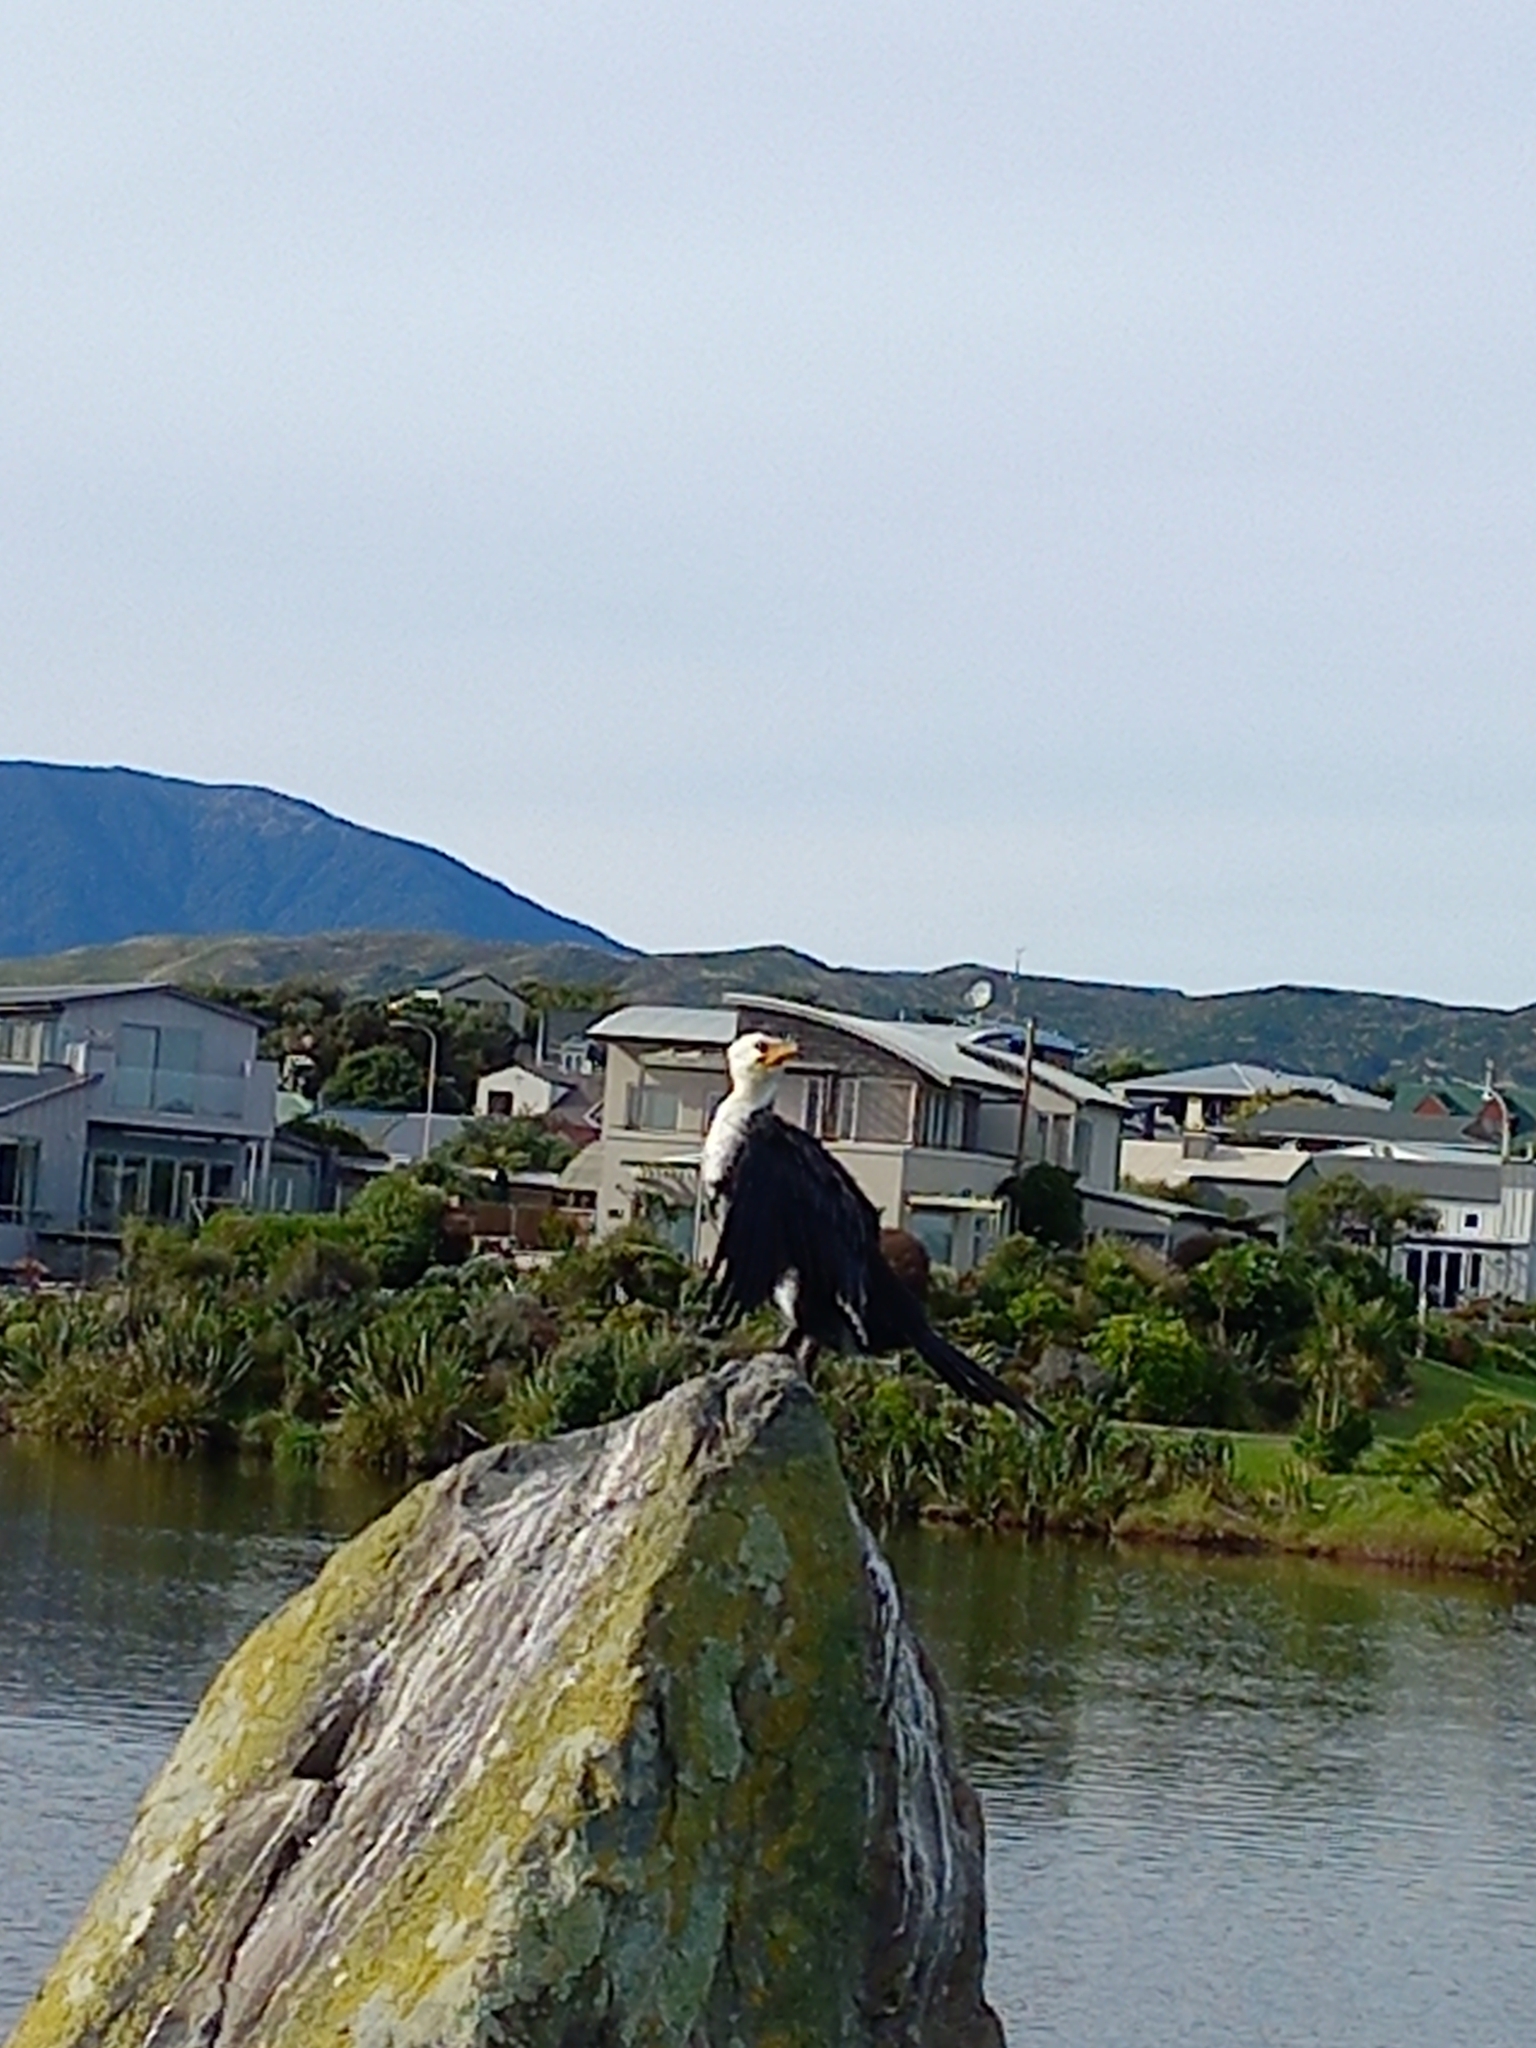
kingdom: Animalia
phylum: Chordata
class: Aves
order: Suliformes
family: Phalacrocoracidae
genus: Microcarbo
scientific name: Microcarbo melanoleucos
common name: Little pied cormorant
